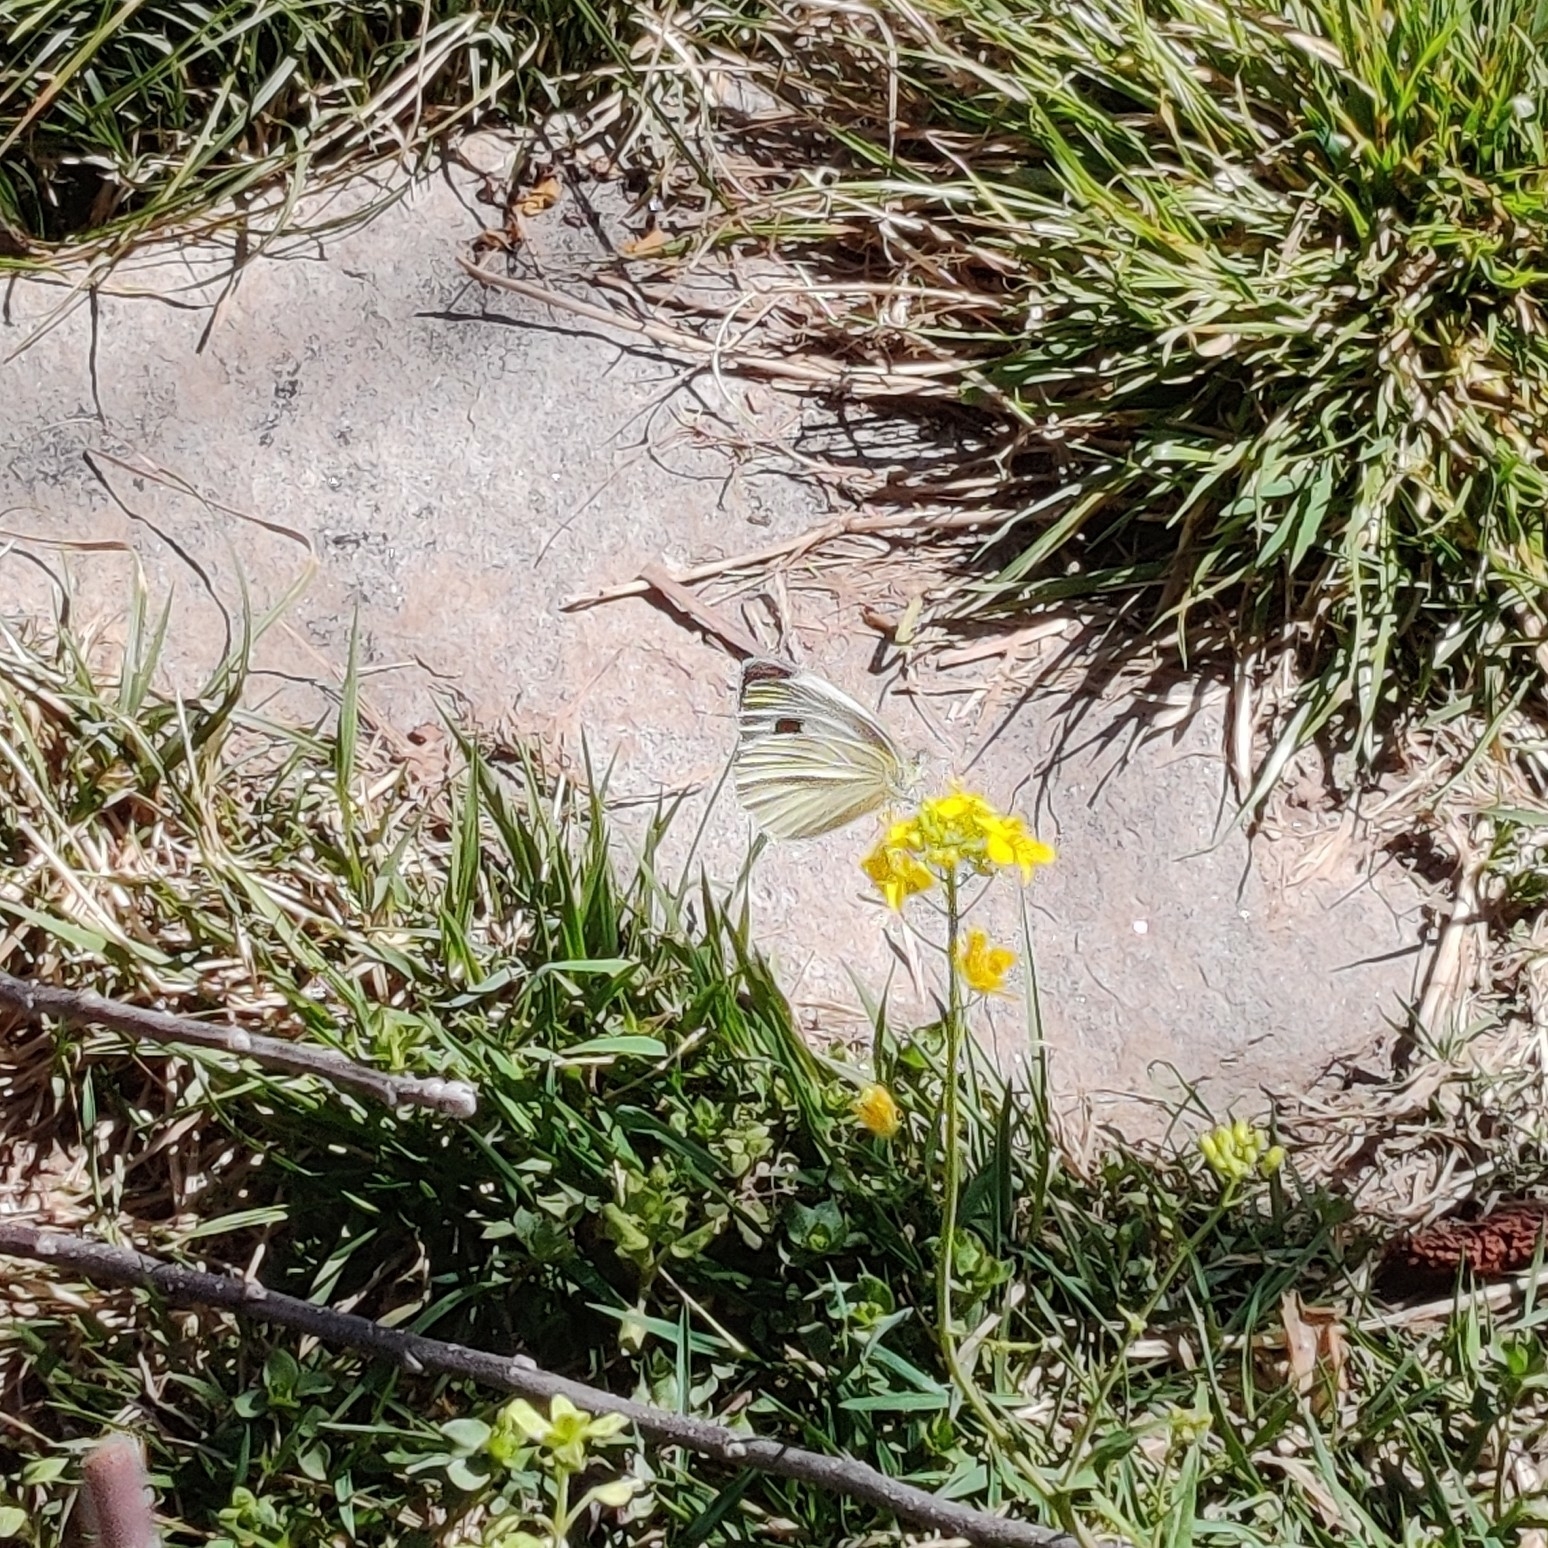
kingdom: Animalia
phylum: Arthropoda
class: Insecta
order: Lepidoptera
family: Pieridae
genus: Pieris
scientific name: Pieris canidia
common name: Indian cabbage white
